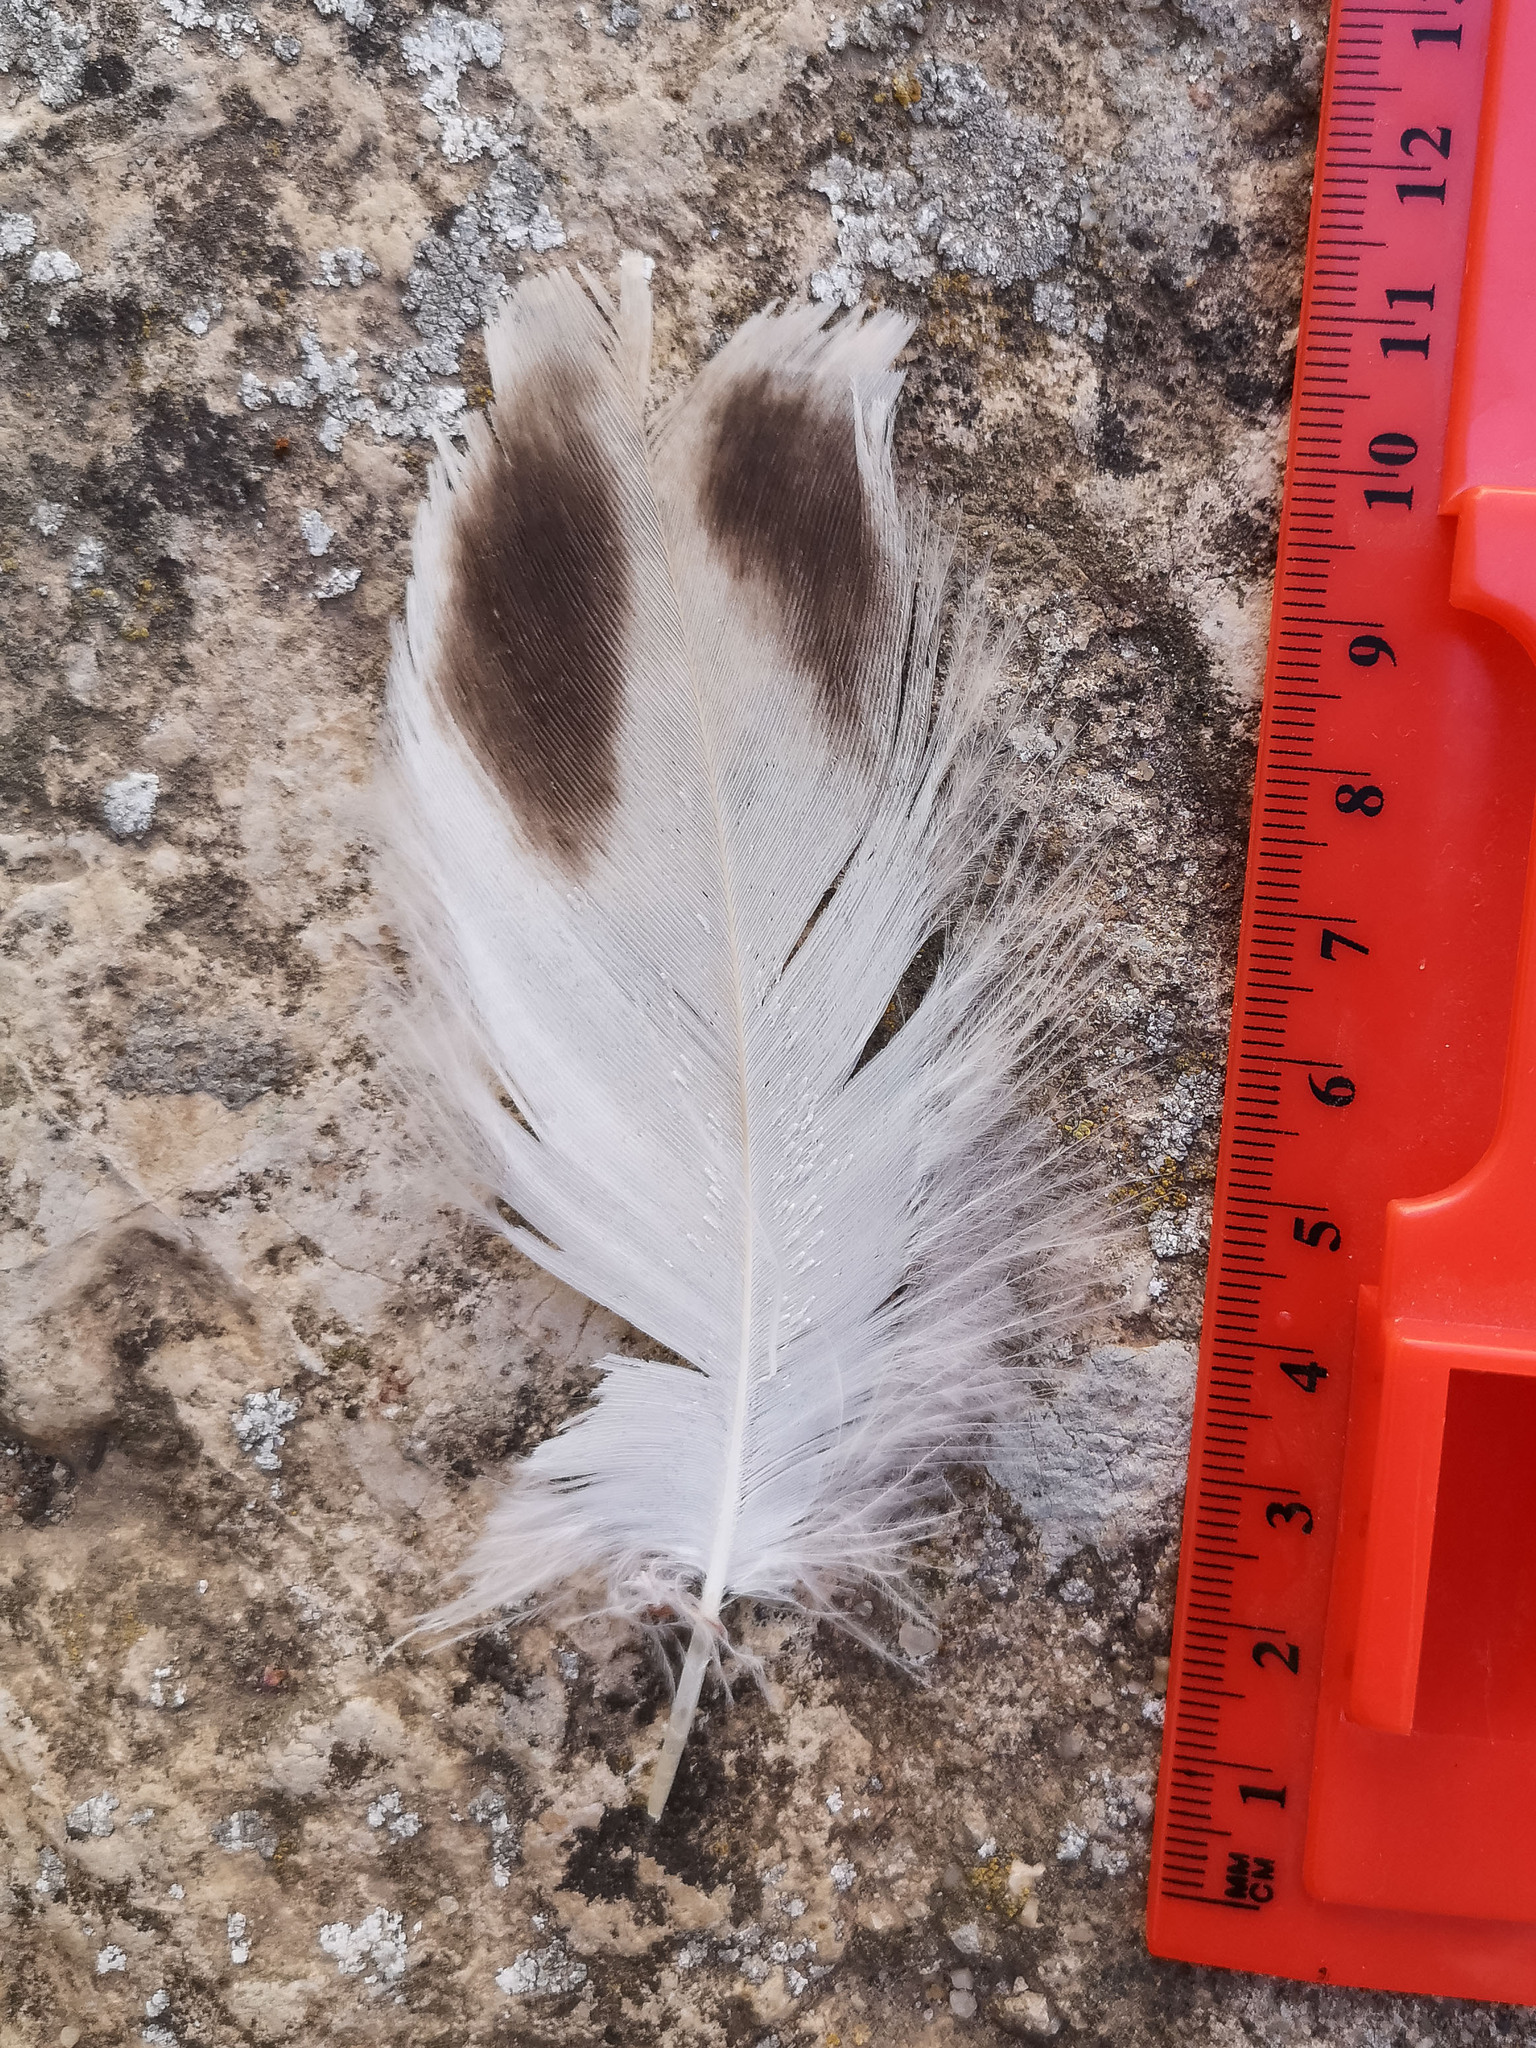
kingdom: Animalia
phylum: Chordata
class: Aves
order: Accipitriformes
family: Accipitridae
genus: Gyps
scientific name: Gyps fulvus
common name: Griffon vulture
